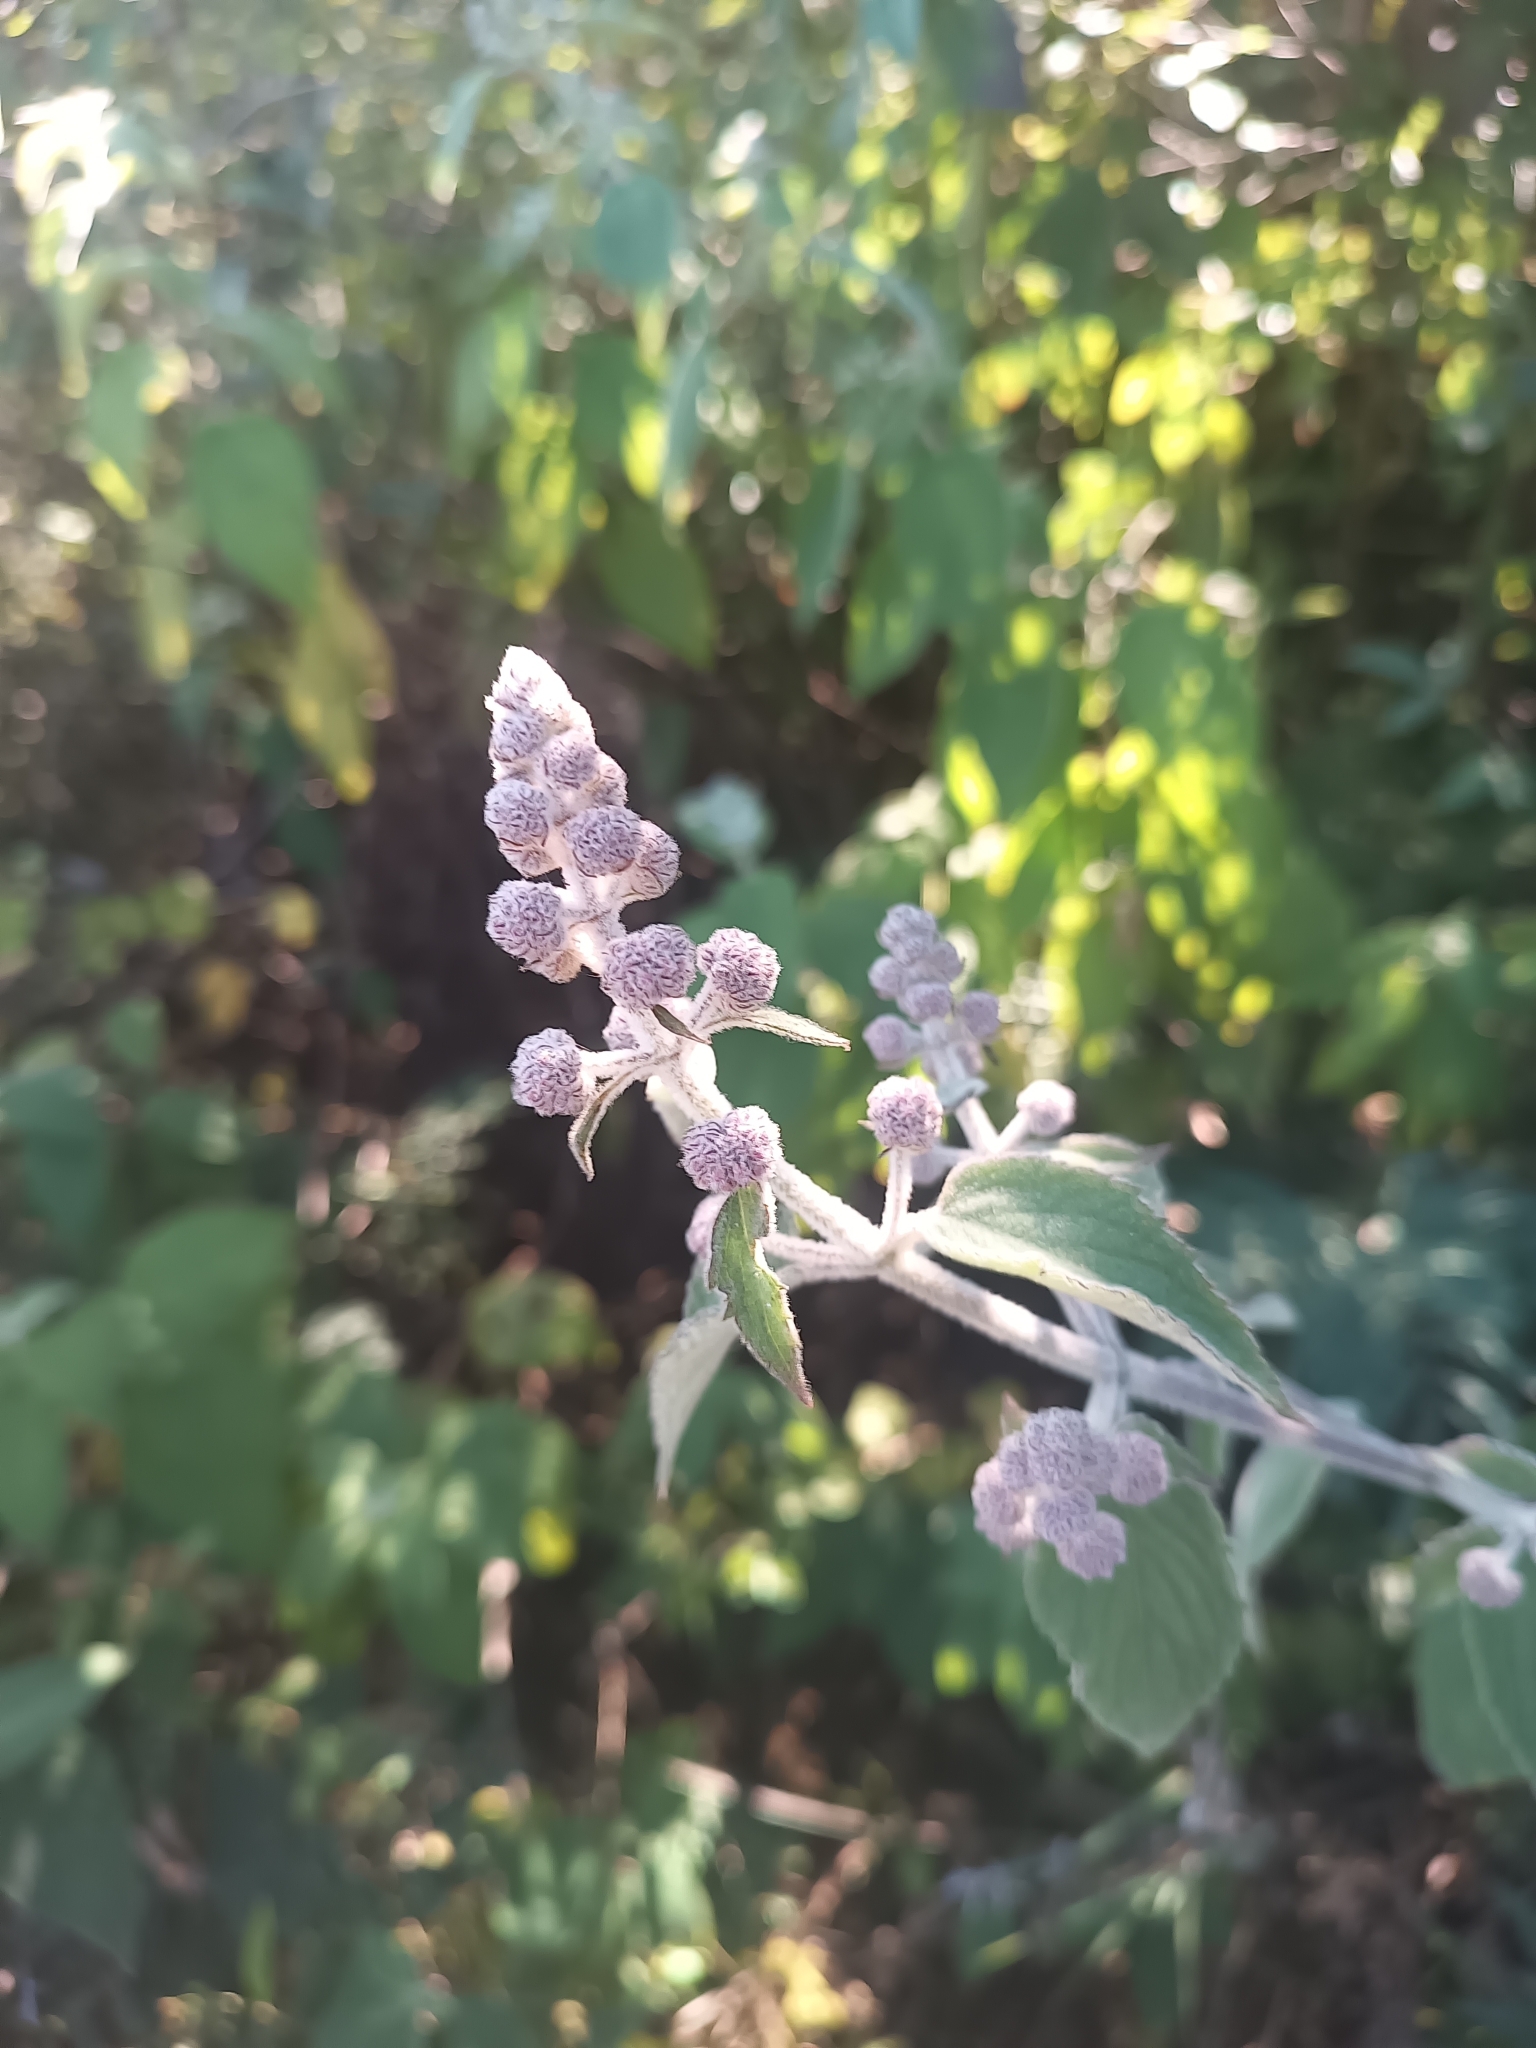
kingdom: Plantae
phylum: Tracheophyta
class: Magnoliopsida
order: Lamiales
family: Lamiaceae
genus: Mesosphaerum
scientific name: Mesosphaerum oblongifolium
